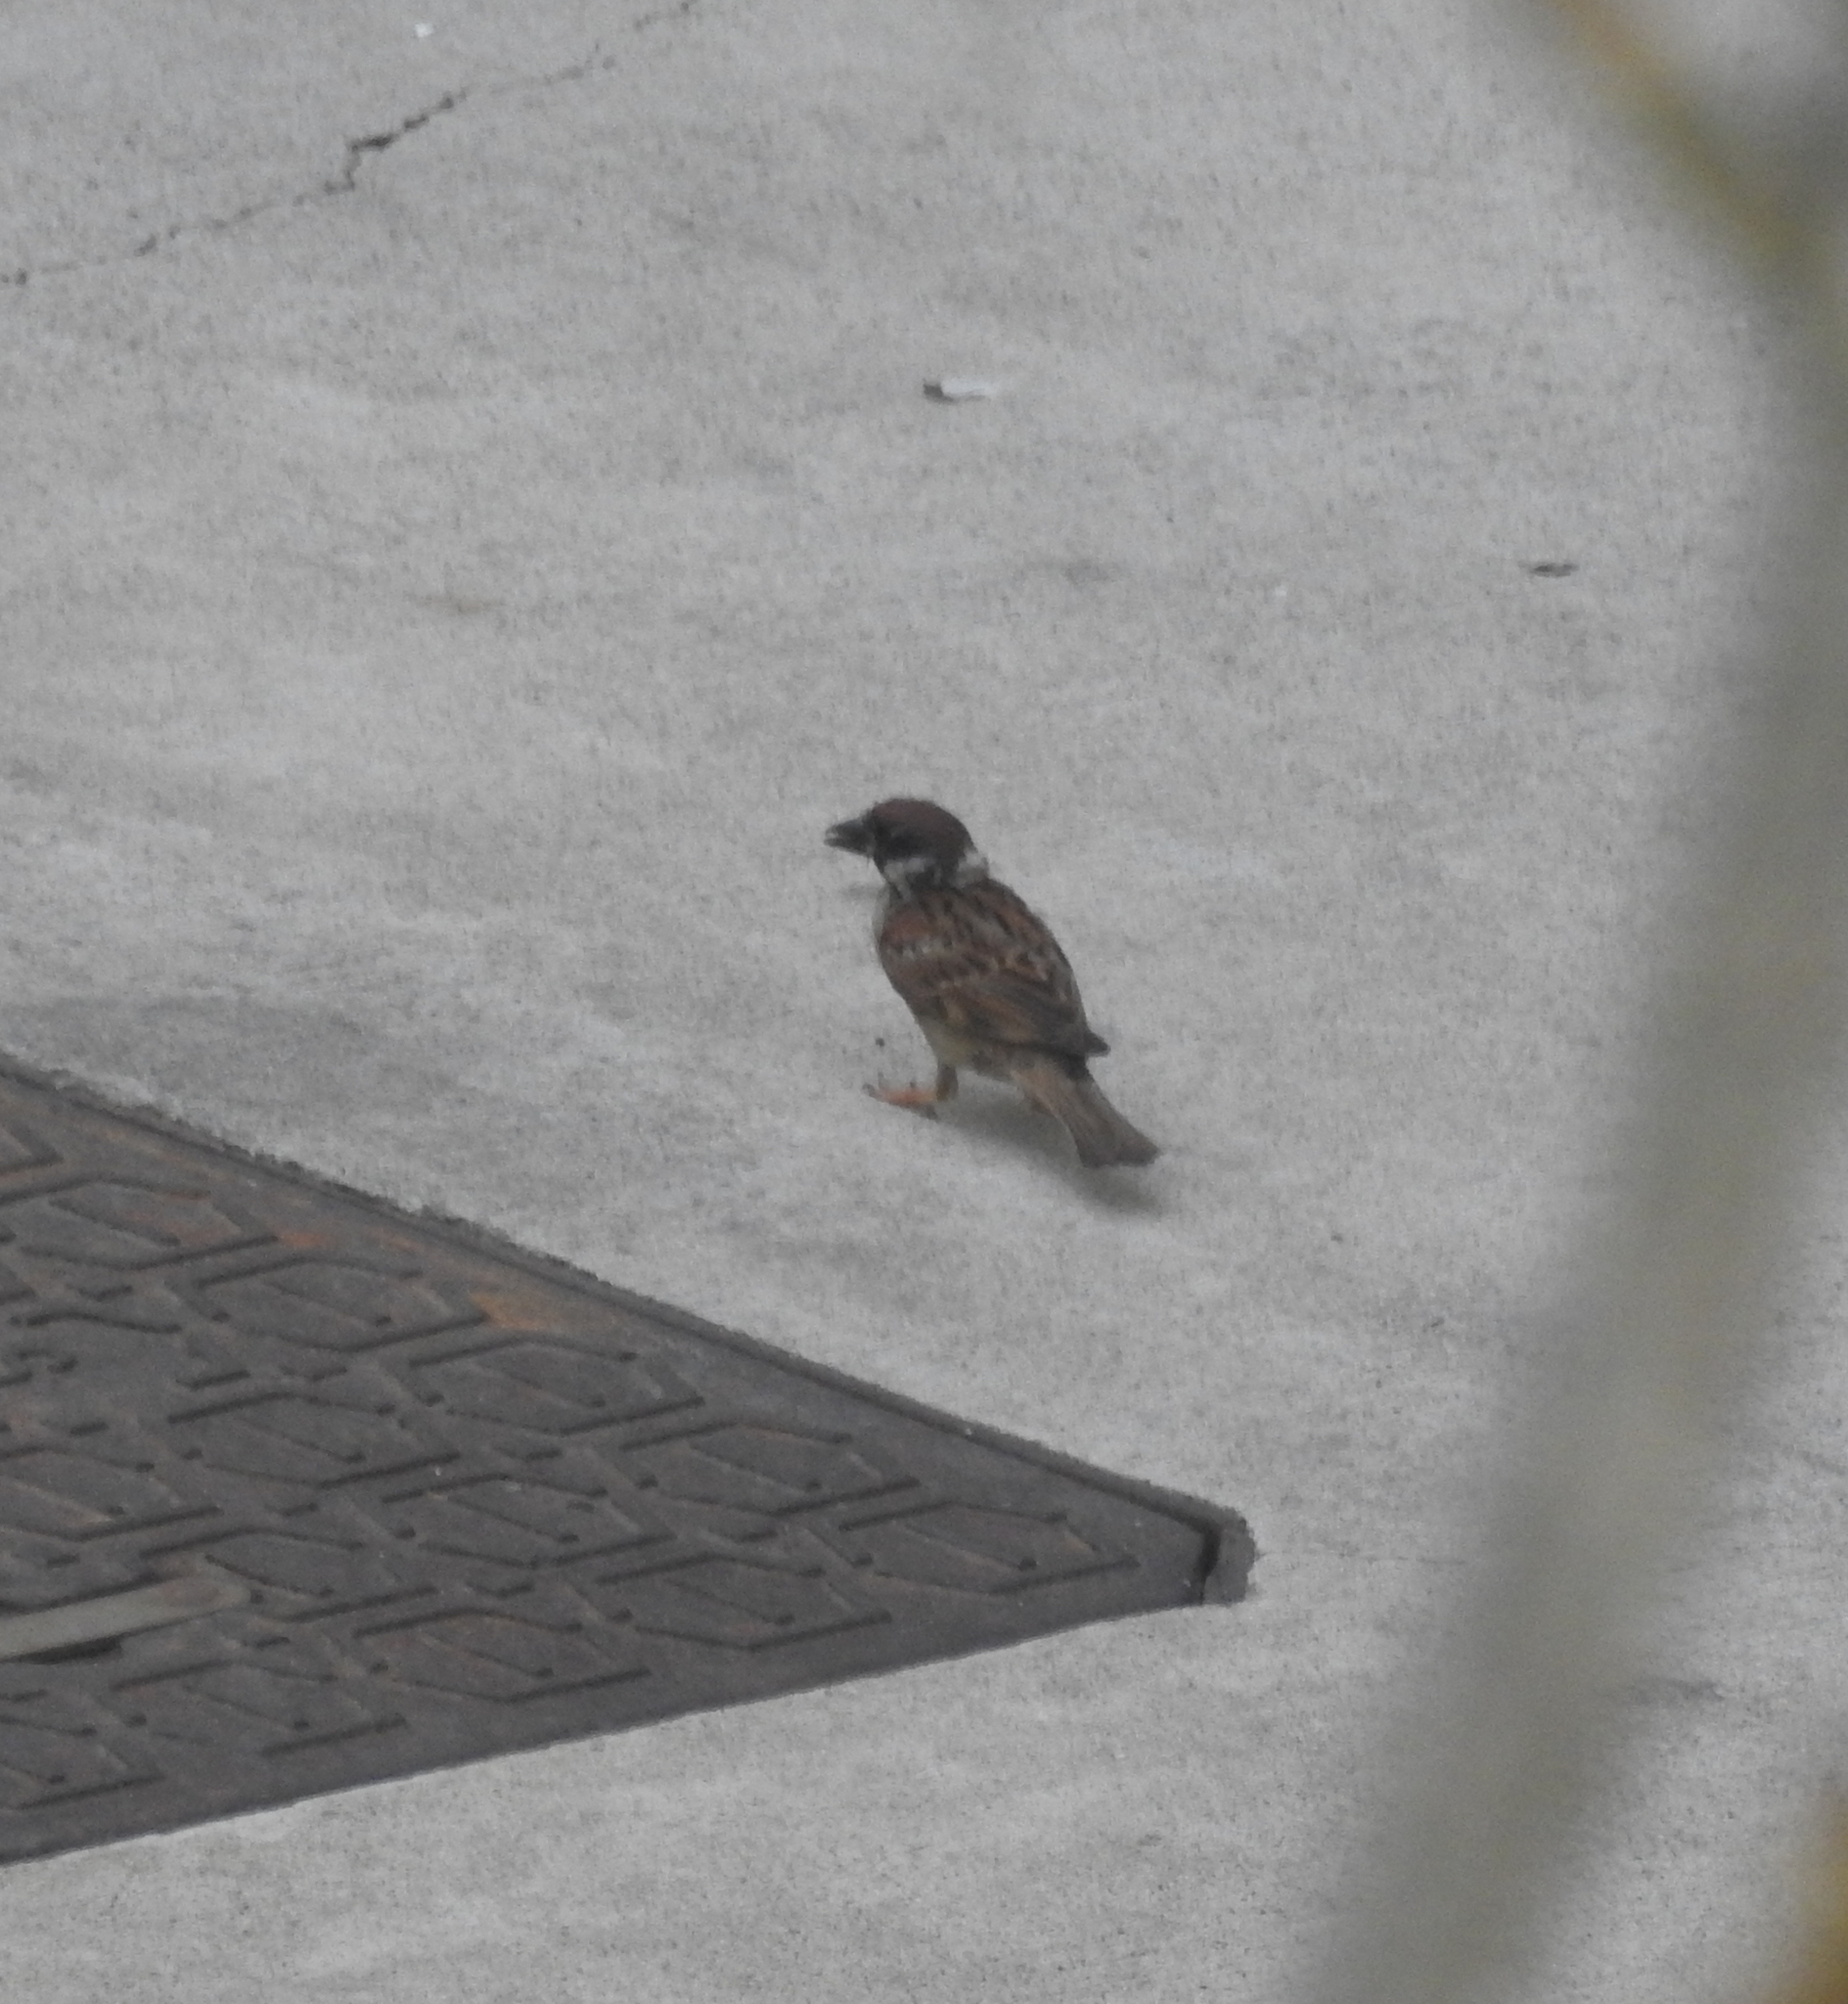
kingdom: Animalia
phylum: Chordata
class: Aves
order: Passeriformes
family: Passeridae
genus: Passer
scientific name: Passer montanus
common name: Eurasian tree sparrow
